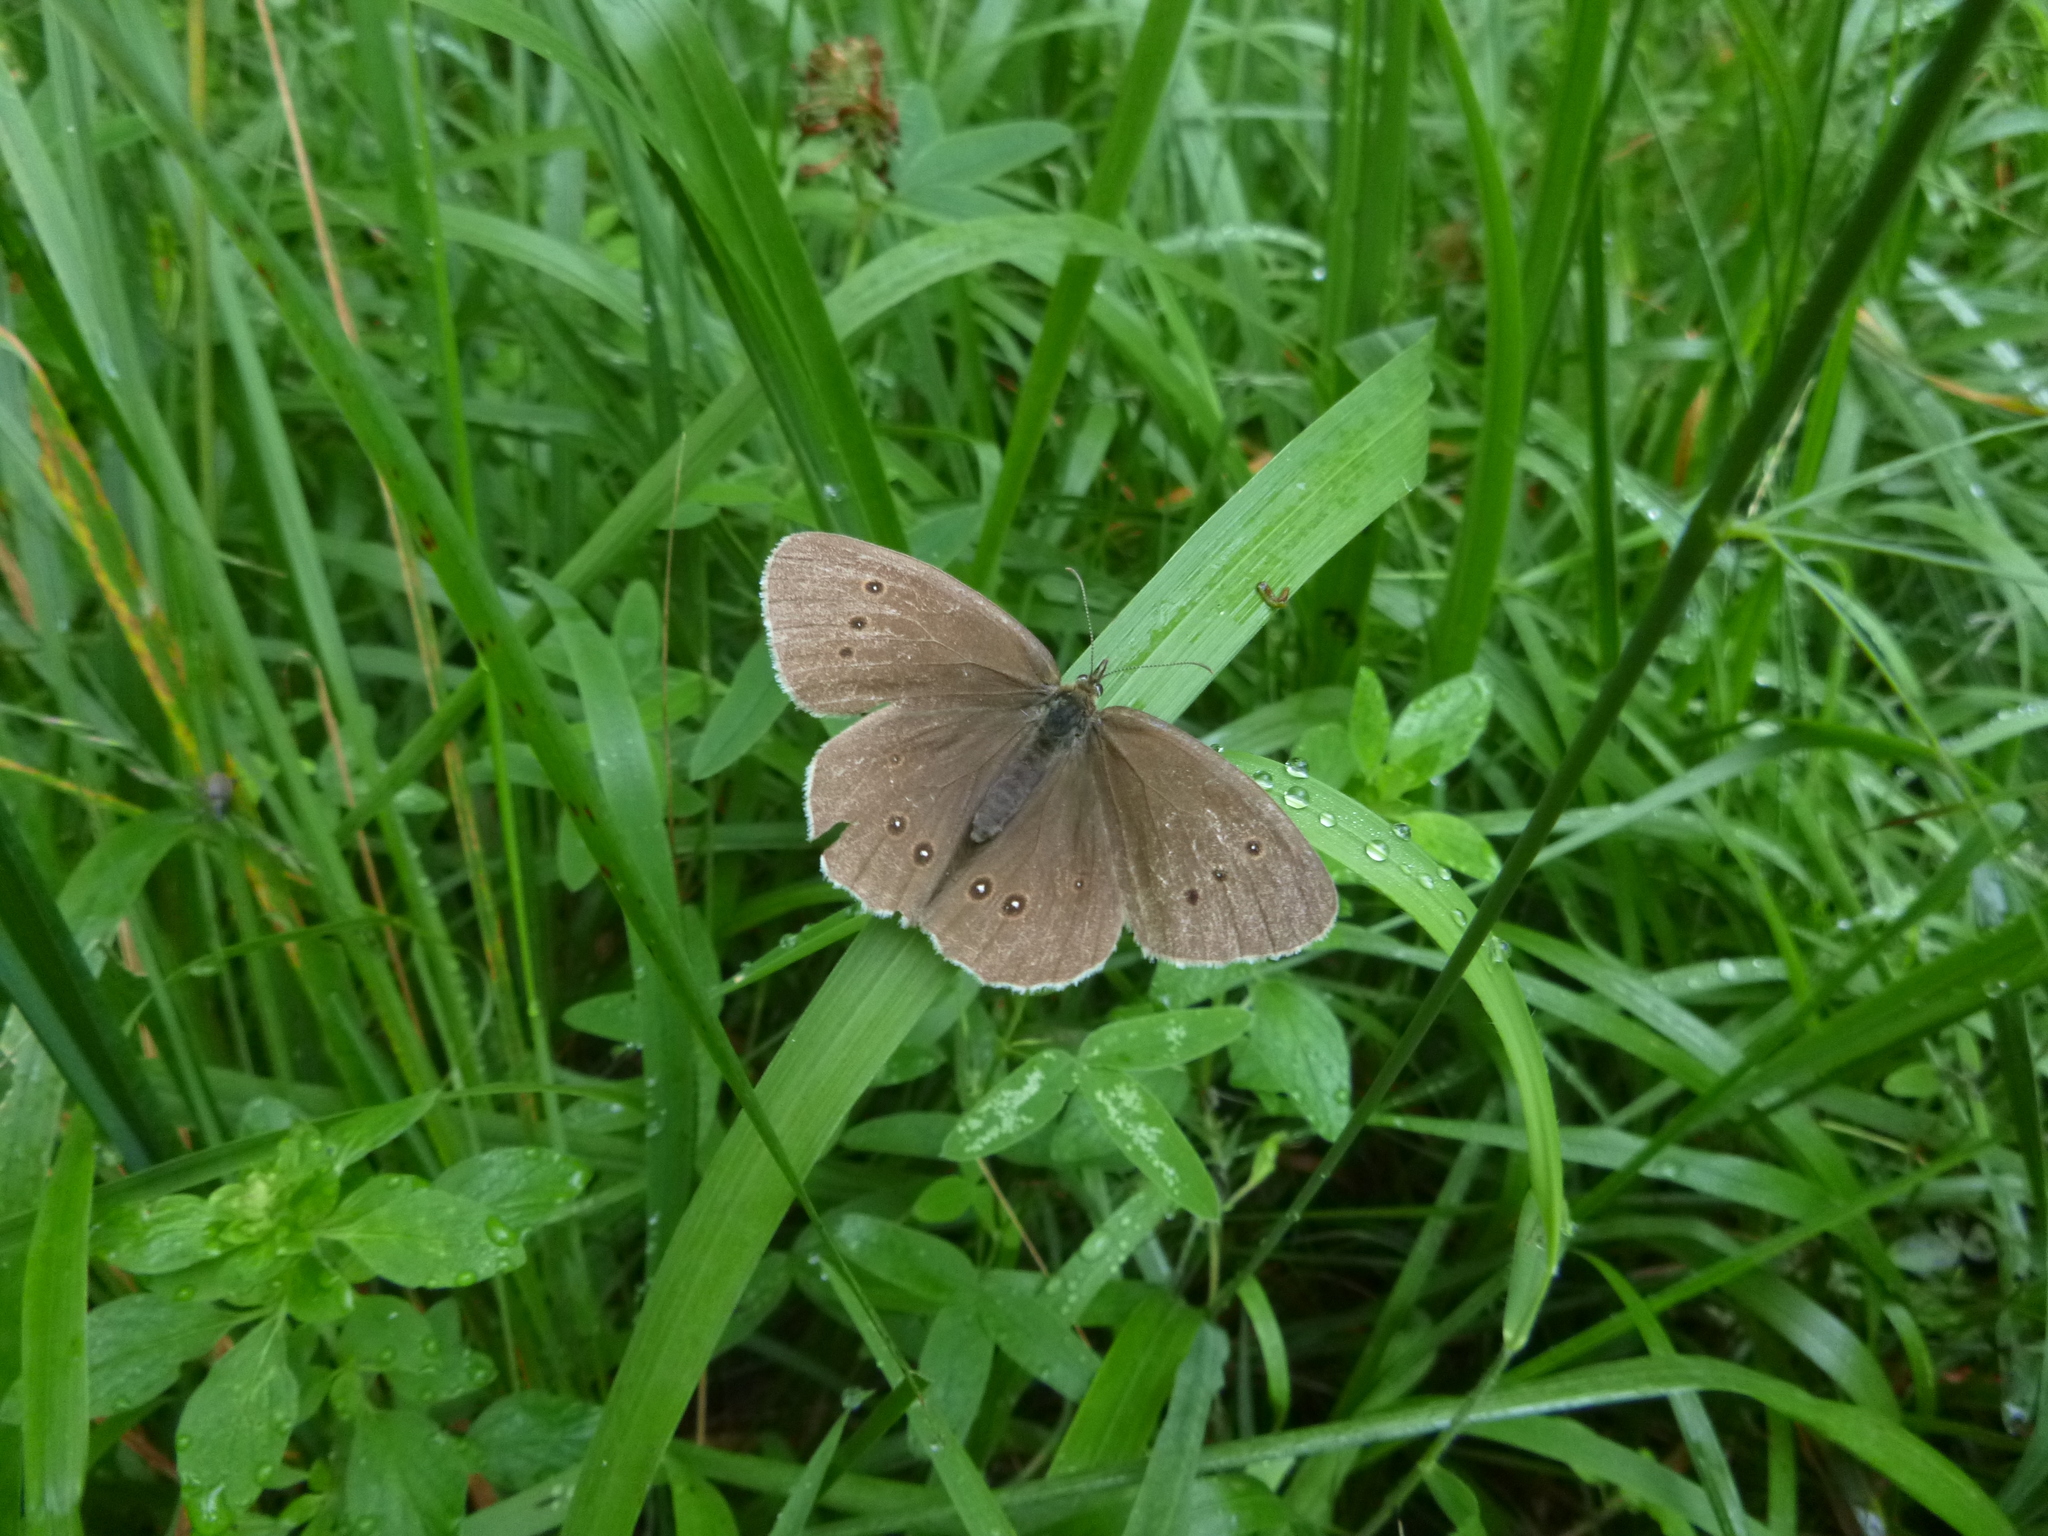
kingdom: Animalia
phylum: Arthropoda
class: Insecta
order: Lepidoptera
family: Nymphalidae
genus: Aphantopus
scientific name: Aphantopus hyperantus
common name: Ringlet
